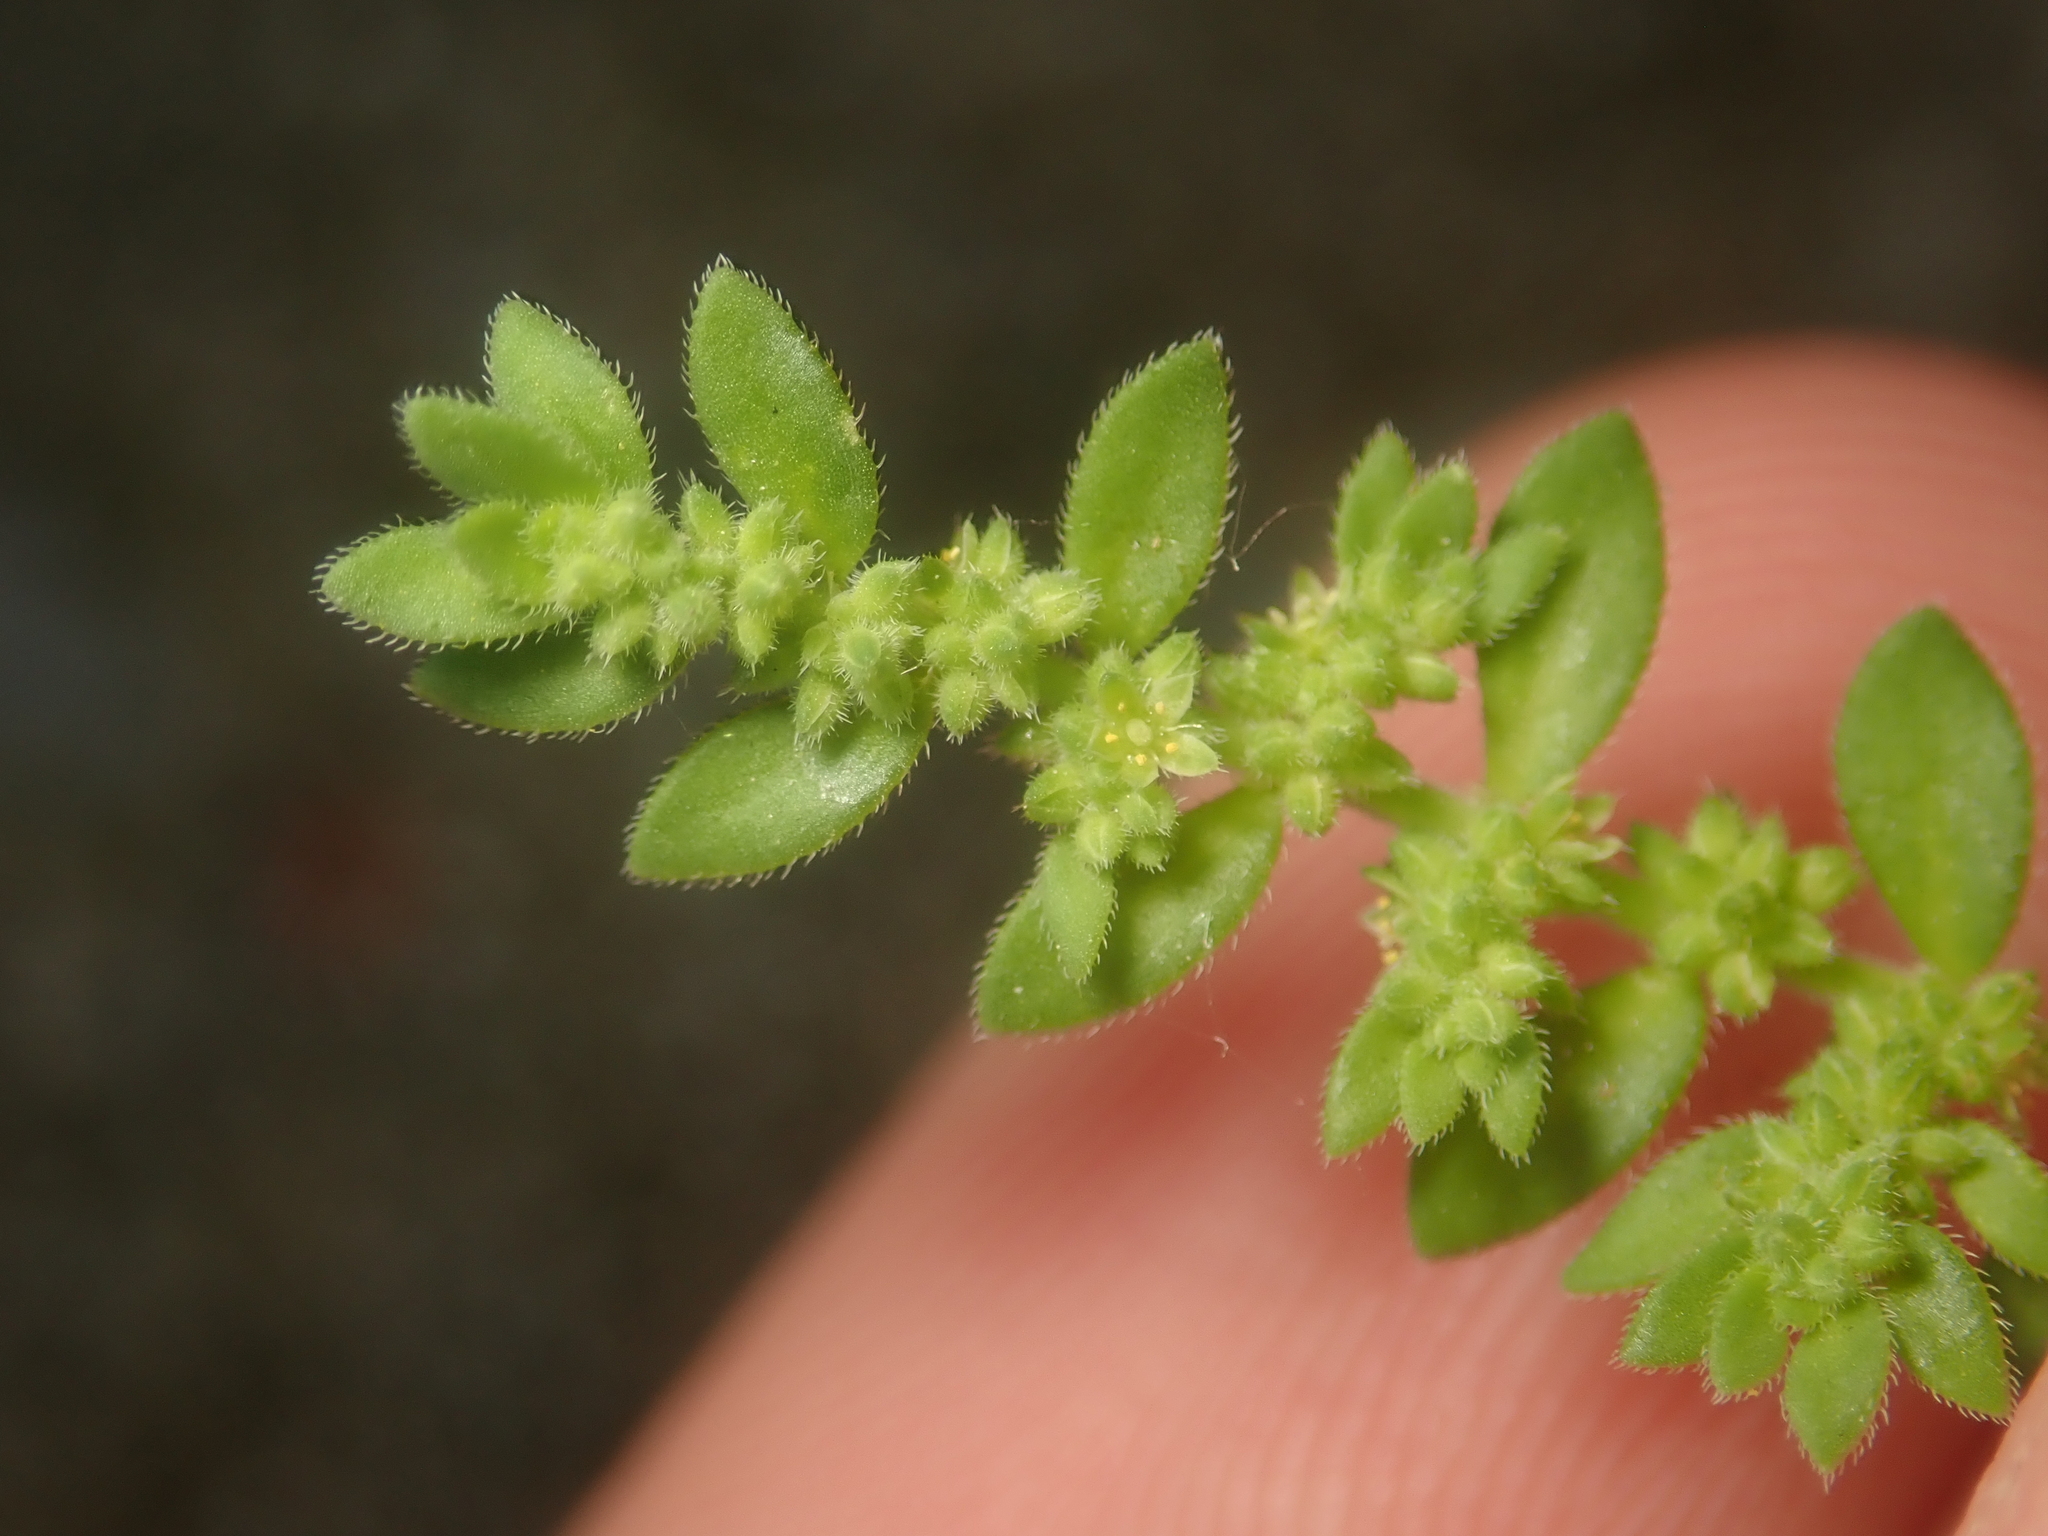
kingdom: Plantae
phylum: Tracheophyta
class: Magnoliopsida
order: Caryophyllales
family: Caryophyllaceae
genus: Herniaria
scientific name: Herniaria hirsuta
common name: Hairy rupturewort
